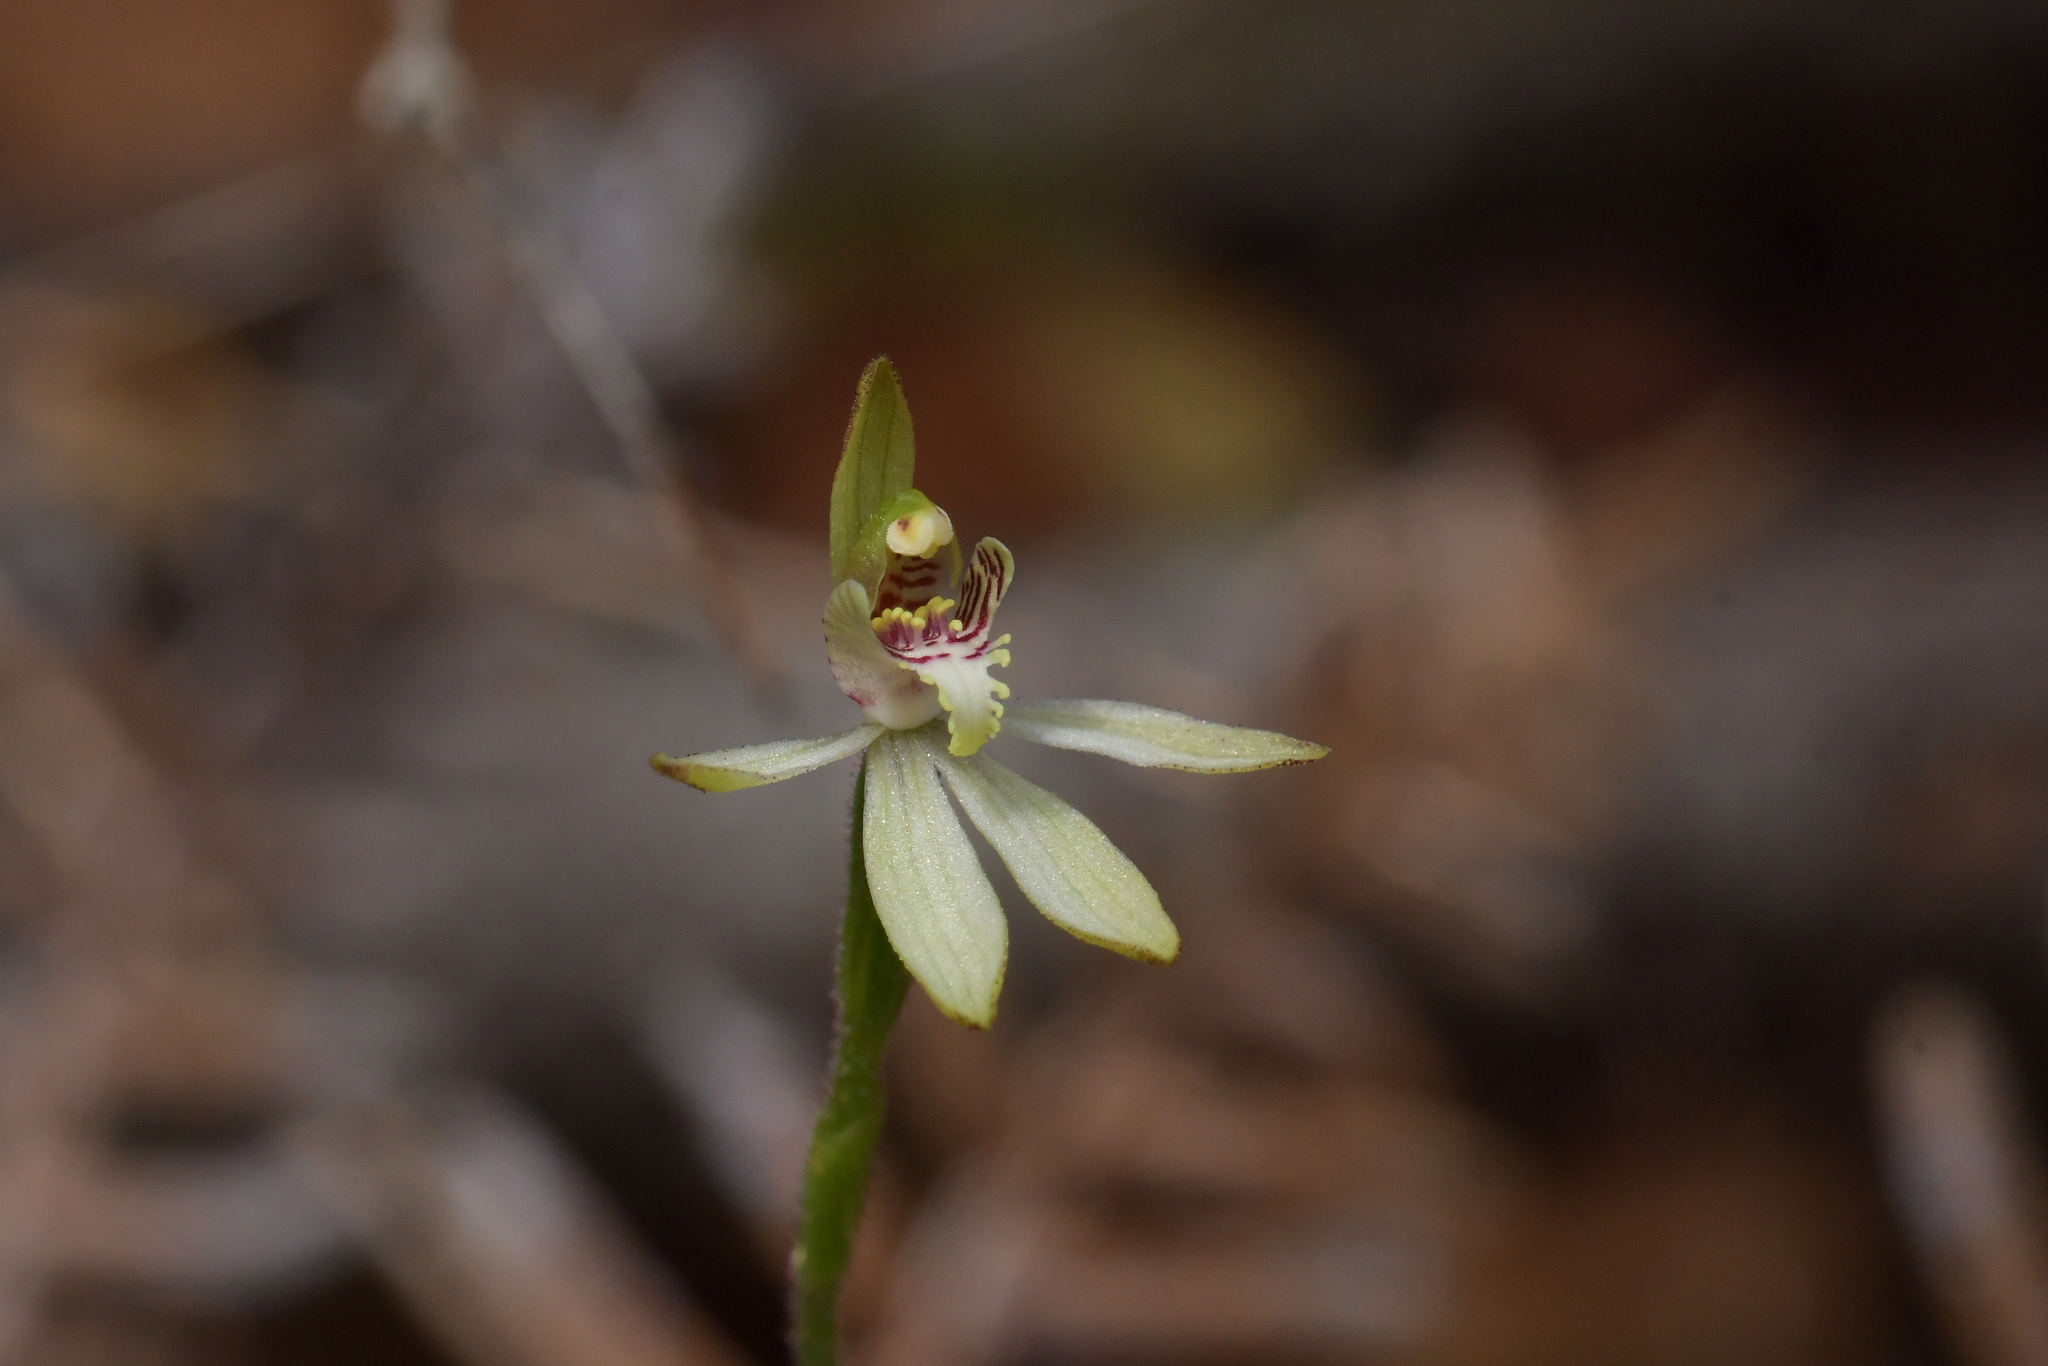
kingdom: Plantae
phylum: Tracheophyta
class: Liliopsida
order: Asparagales
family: Orchidaceae
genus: Caladenia
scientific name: Caladenia chlorostyla
